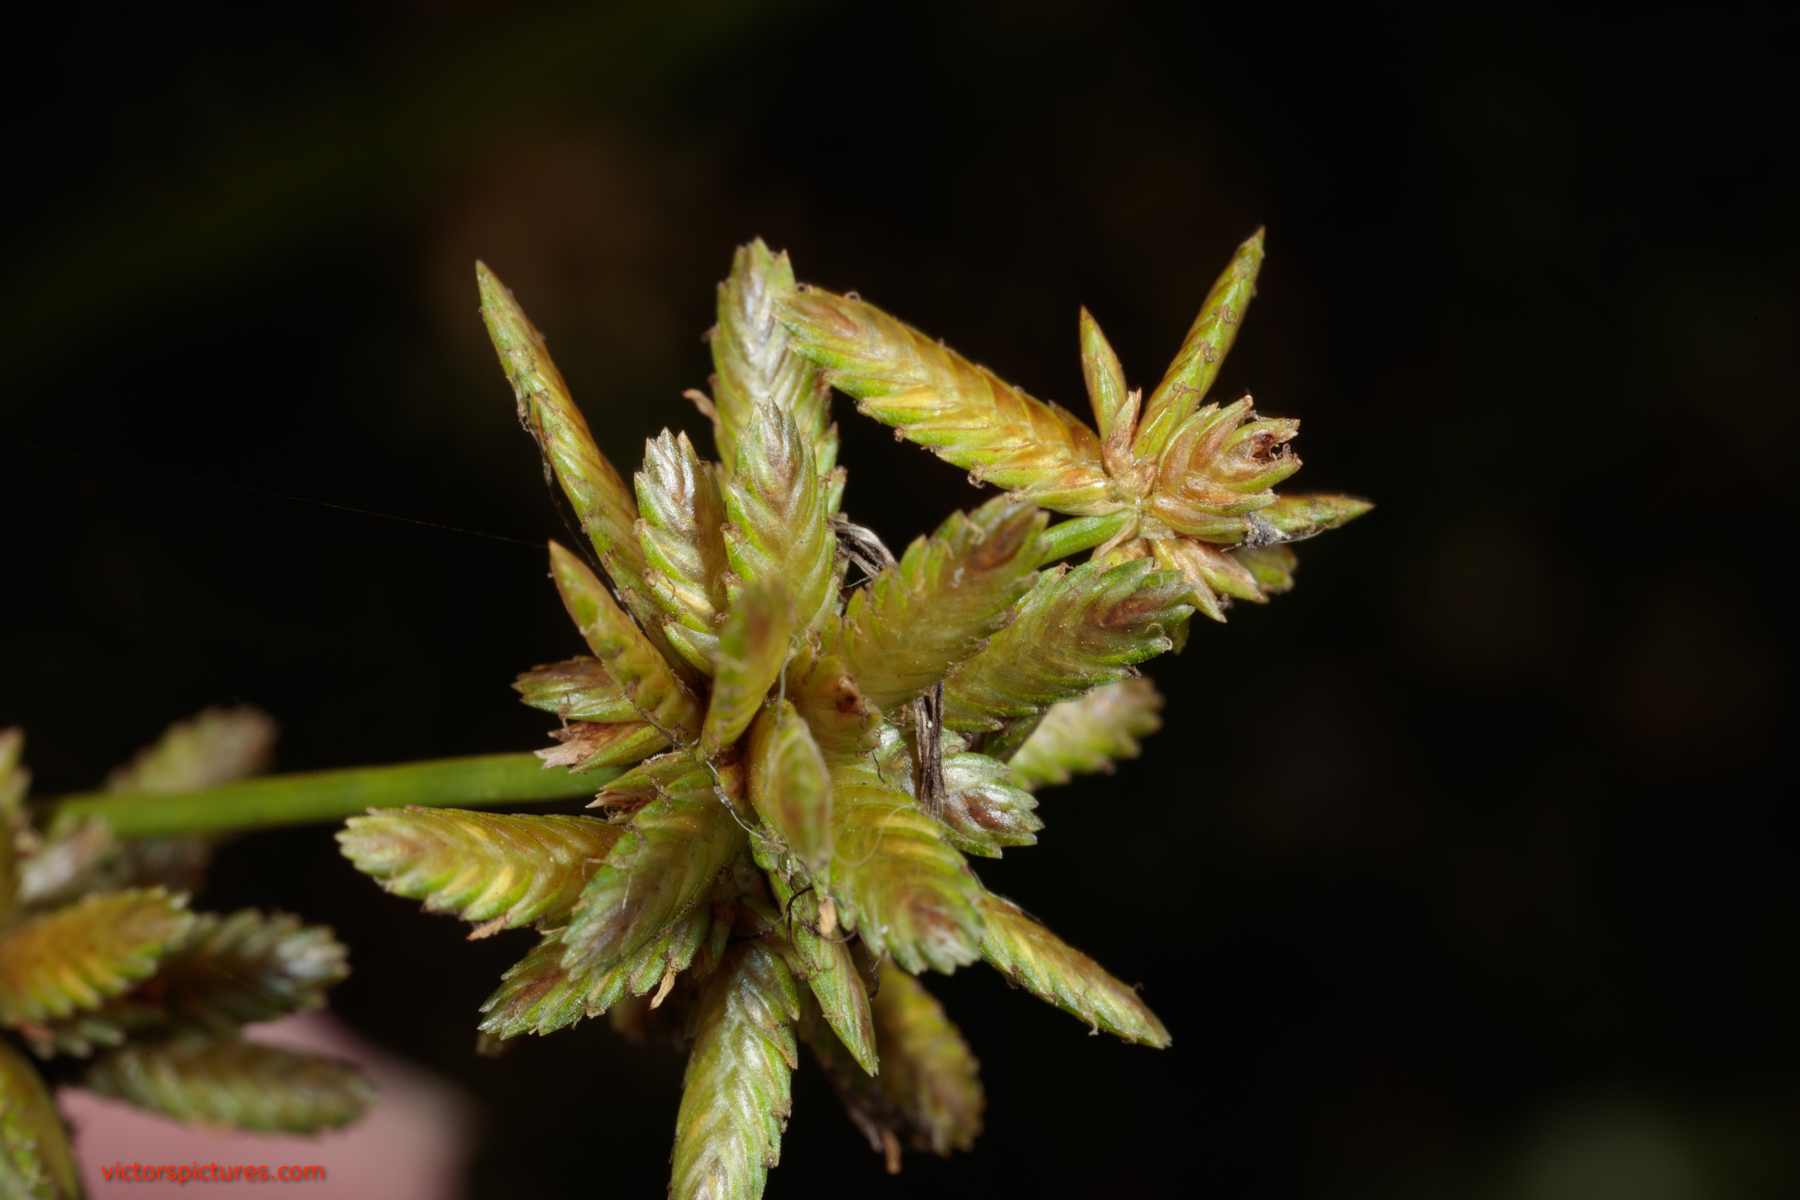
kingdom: Plantae
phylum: Tracheophyta
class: Liliopsida
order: Poales
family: Cyperaceae
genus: Cyperus
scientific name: Cyperus ochraceus
